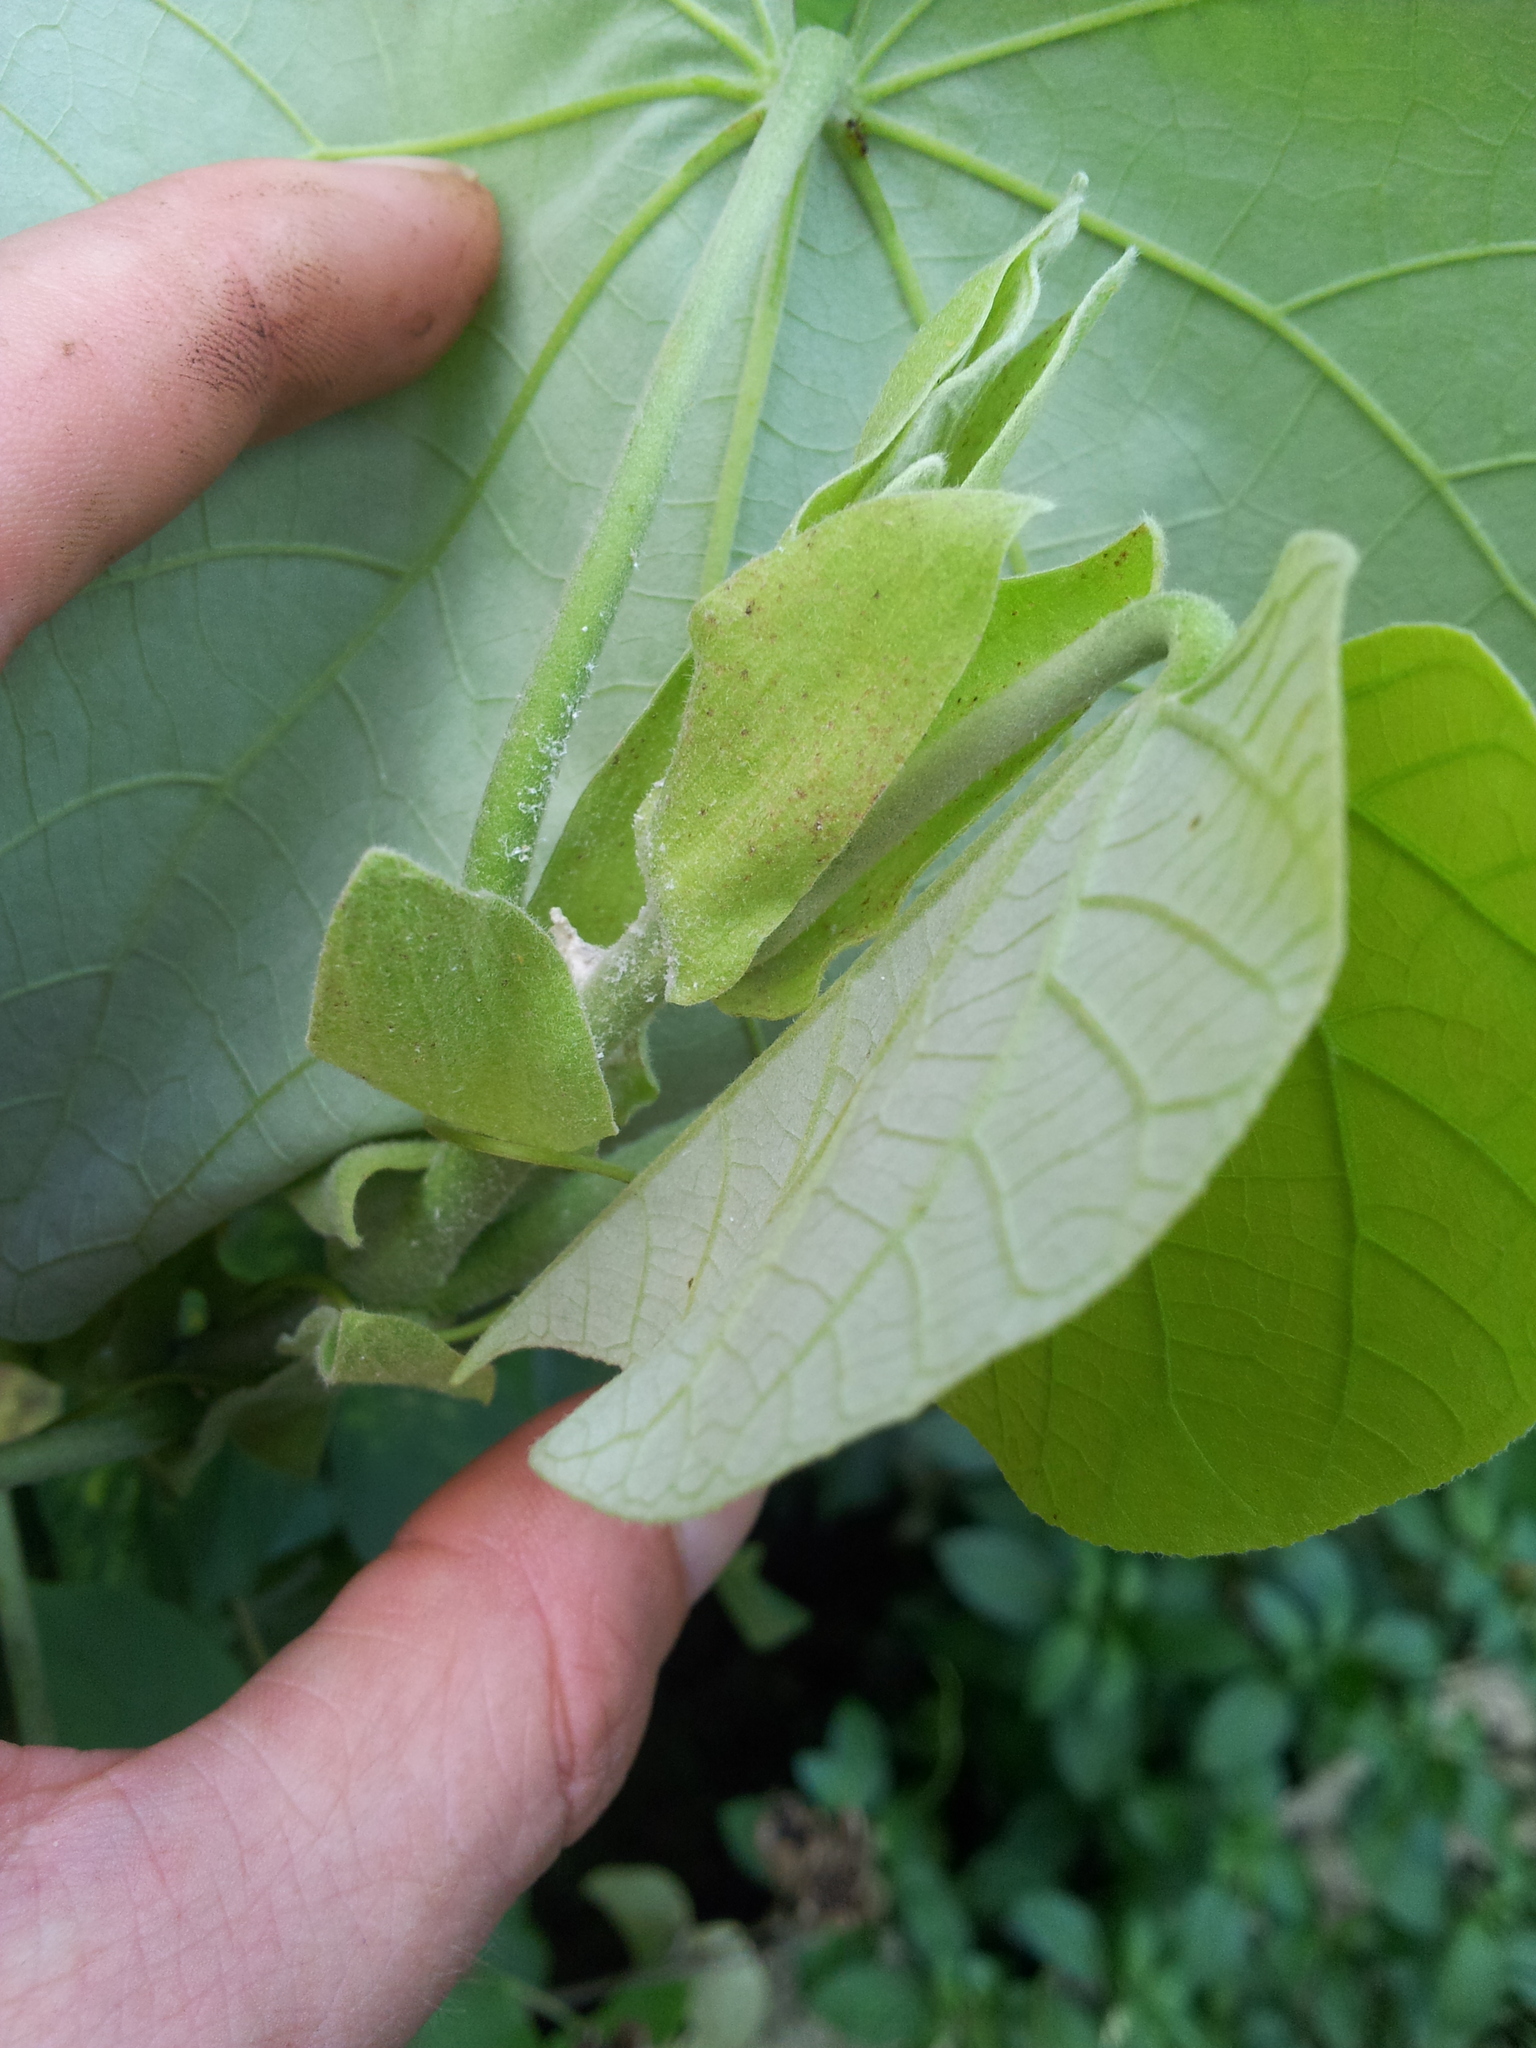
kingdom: Animalia
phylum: Arthropoda
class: Insecta
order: Hemiptera
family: Carsidaridae
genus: Mesohomotoma
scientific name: Mesohomotoma hibisci
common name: Psyllid
